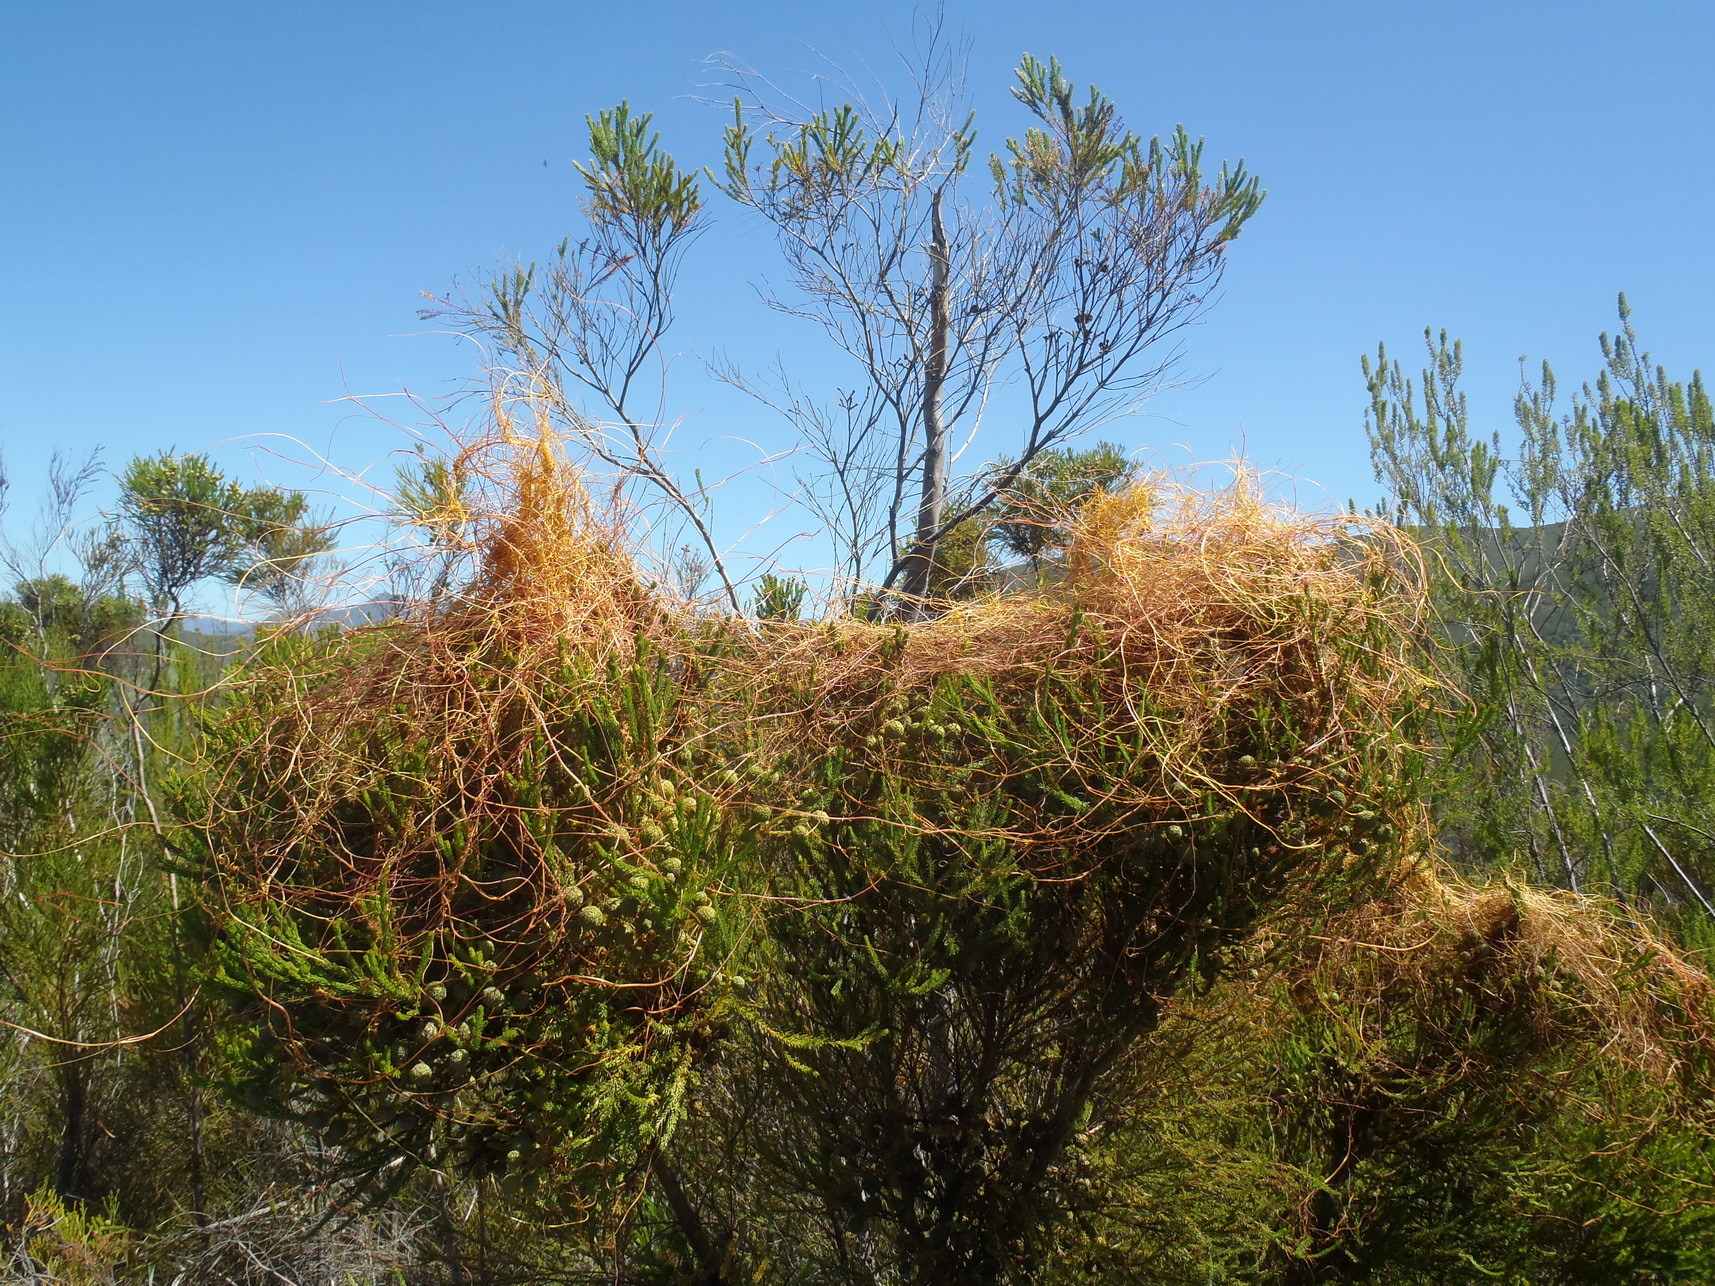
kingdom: Plantae
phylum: Tracheophyta
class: Magnoliopsida
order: Laurales
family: Lauraceae
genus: Cassytha
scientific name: Cassytha ciliolata
